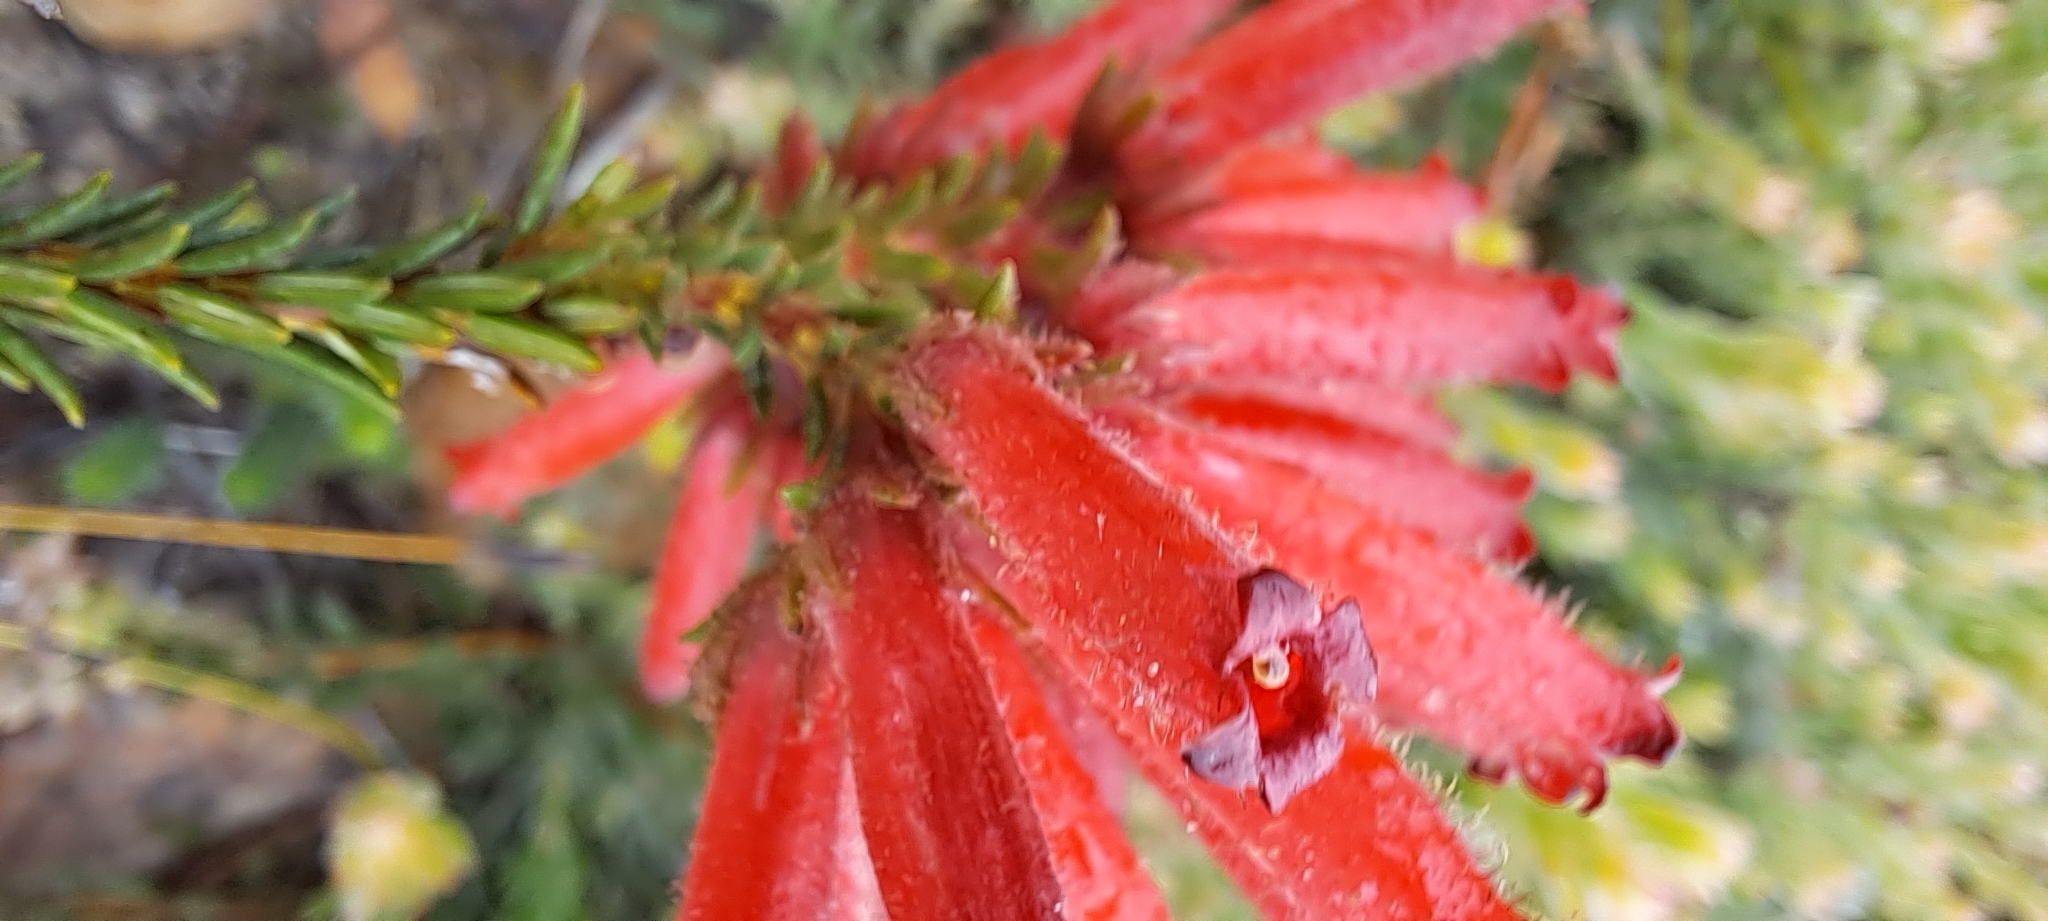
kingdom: Plantae
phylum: Tracheophyta
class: Magnoliopsida
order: Ericales
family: Ericaceae
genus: Erica
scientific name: Erica cerinthoides
